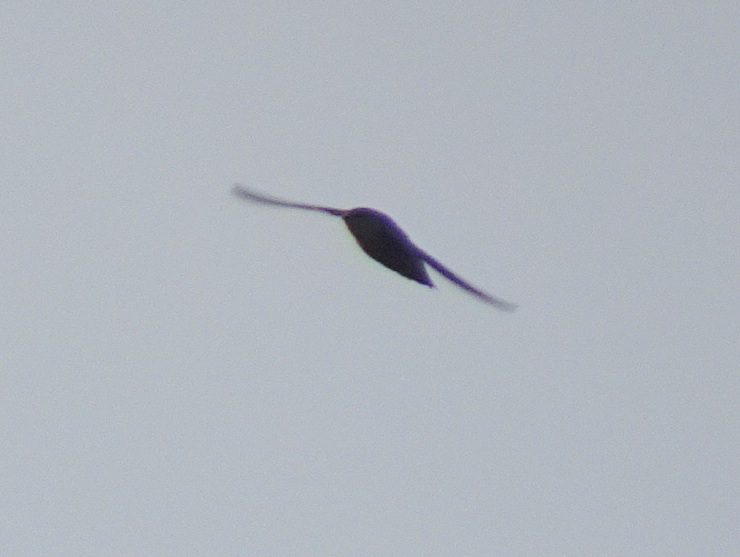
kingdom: Animalia
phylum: Chordata
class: Aves
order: Apodiformes
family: Apodidae
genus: Chaetura
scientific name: Chaetura pelagica
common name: Chimney swift
